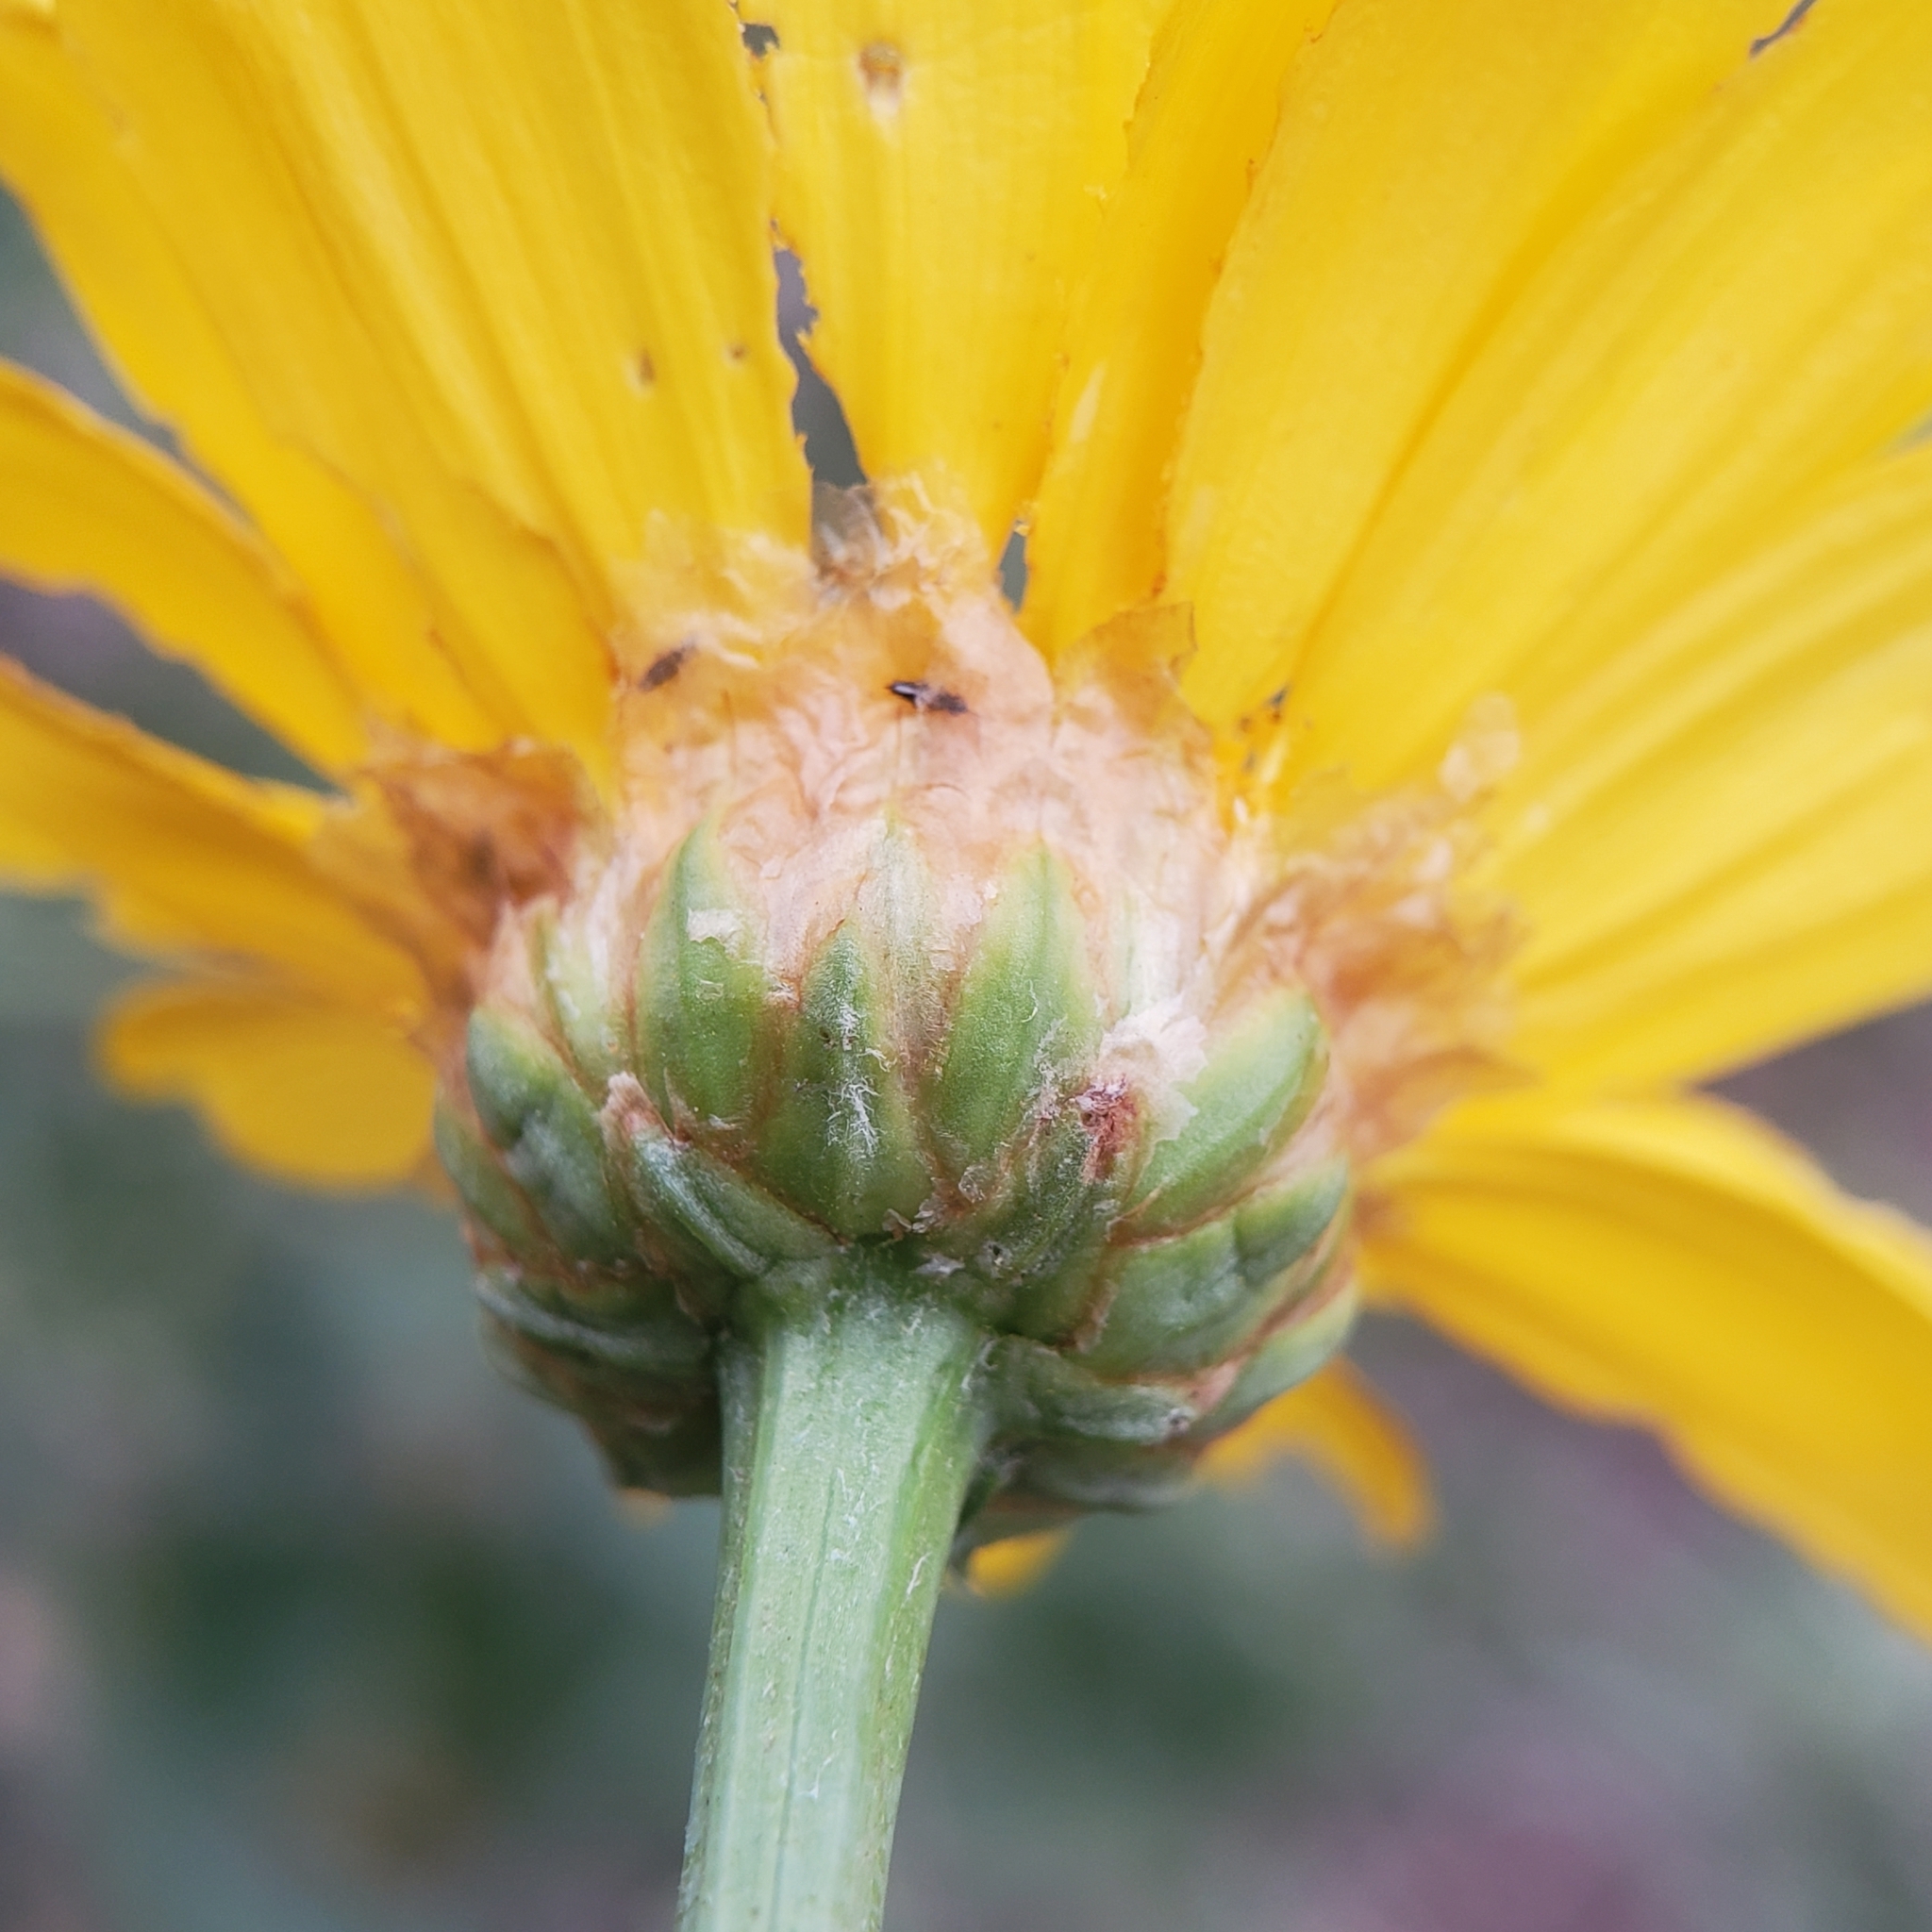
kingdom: Plantae
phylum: Tracheophyta
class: Magnoliopsida
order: Asterales
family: Asteraceae
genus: Glebionis
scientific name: Glebionis coronaria
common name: Crowndaisy
